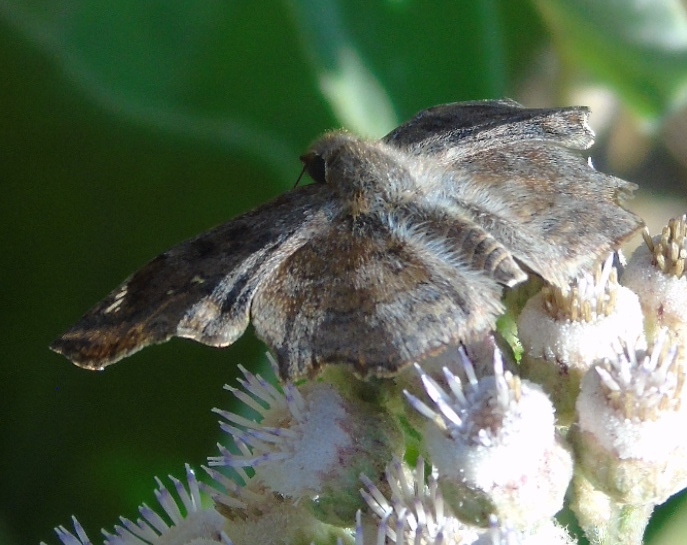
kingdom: Animalia
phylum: Arthropoda
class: Insecta
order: Lepidoptera
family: Hesperiidae
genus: Antigonus
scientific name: Antigonus erosus
